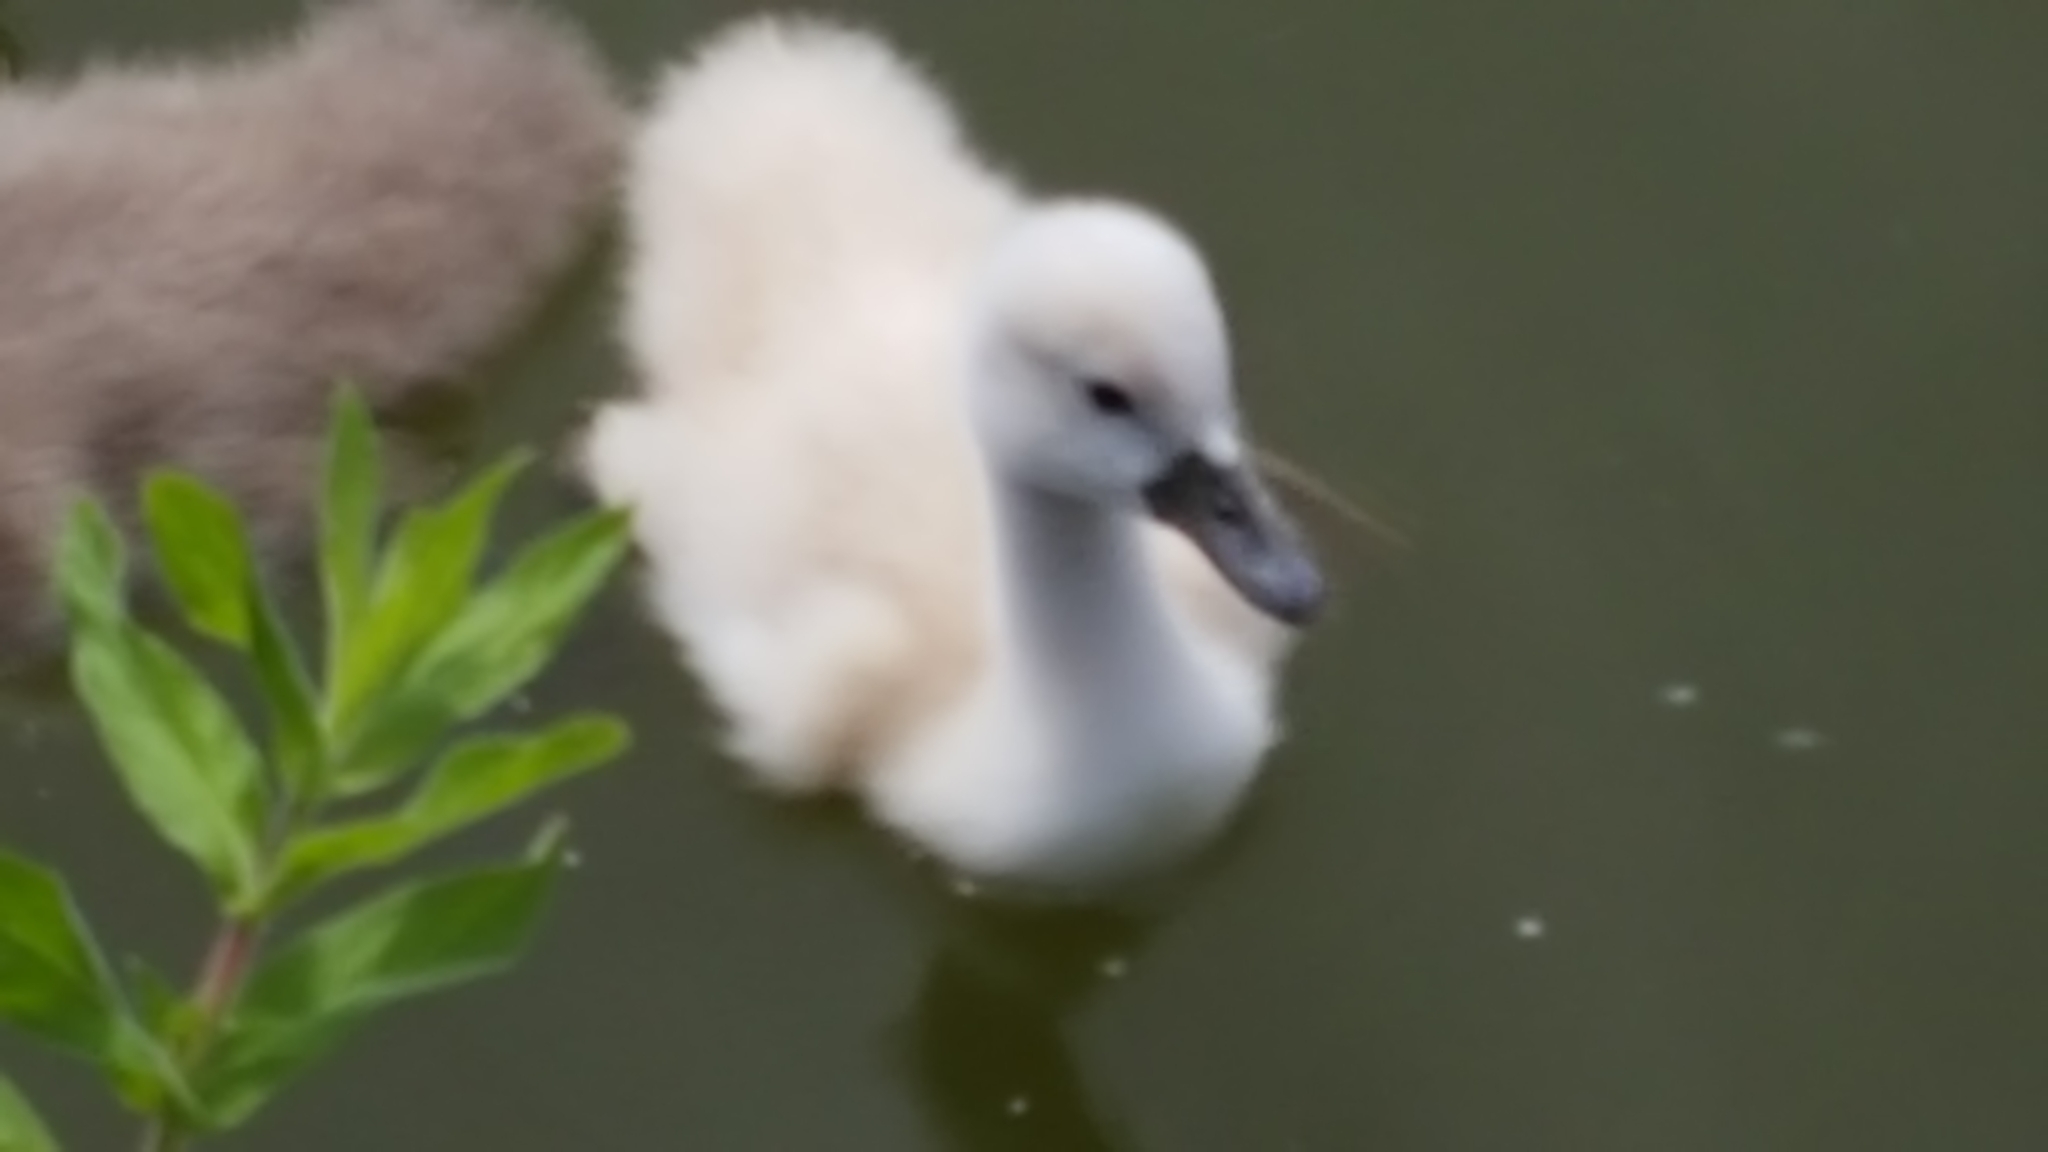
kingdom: Animalia
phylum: Chordata
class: Aves
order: Anseriformes
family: Anatidae
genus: Cygnus
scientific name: Cygnus olor
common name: Mute swan
